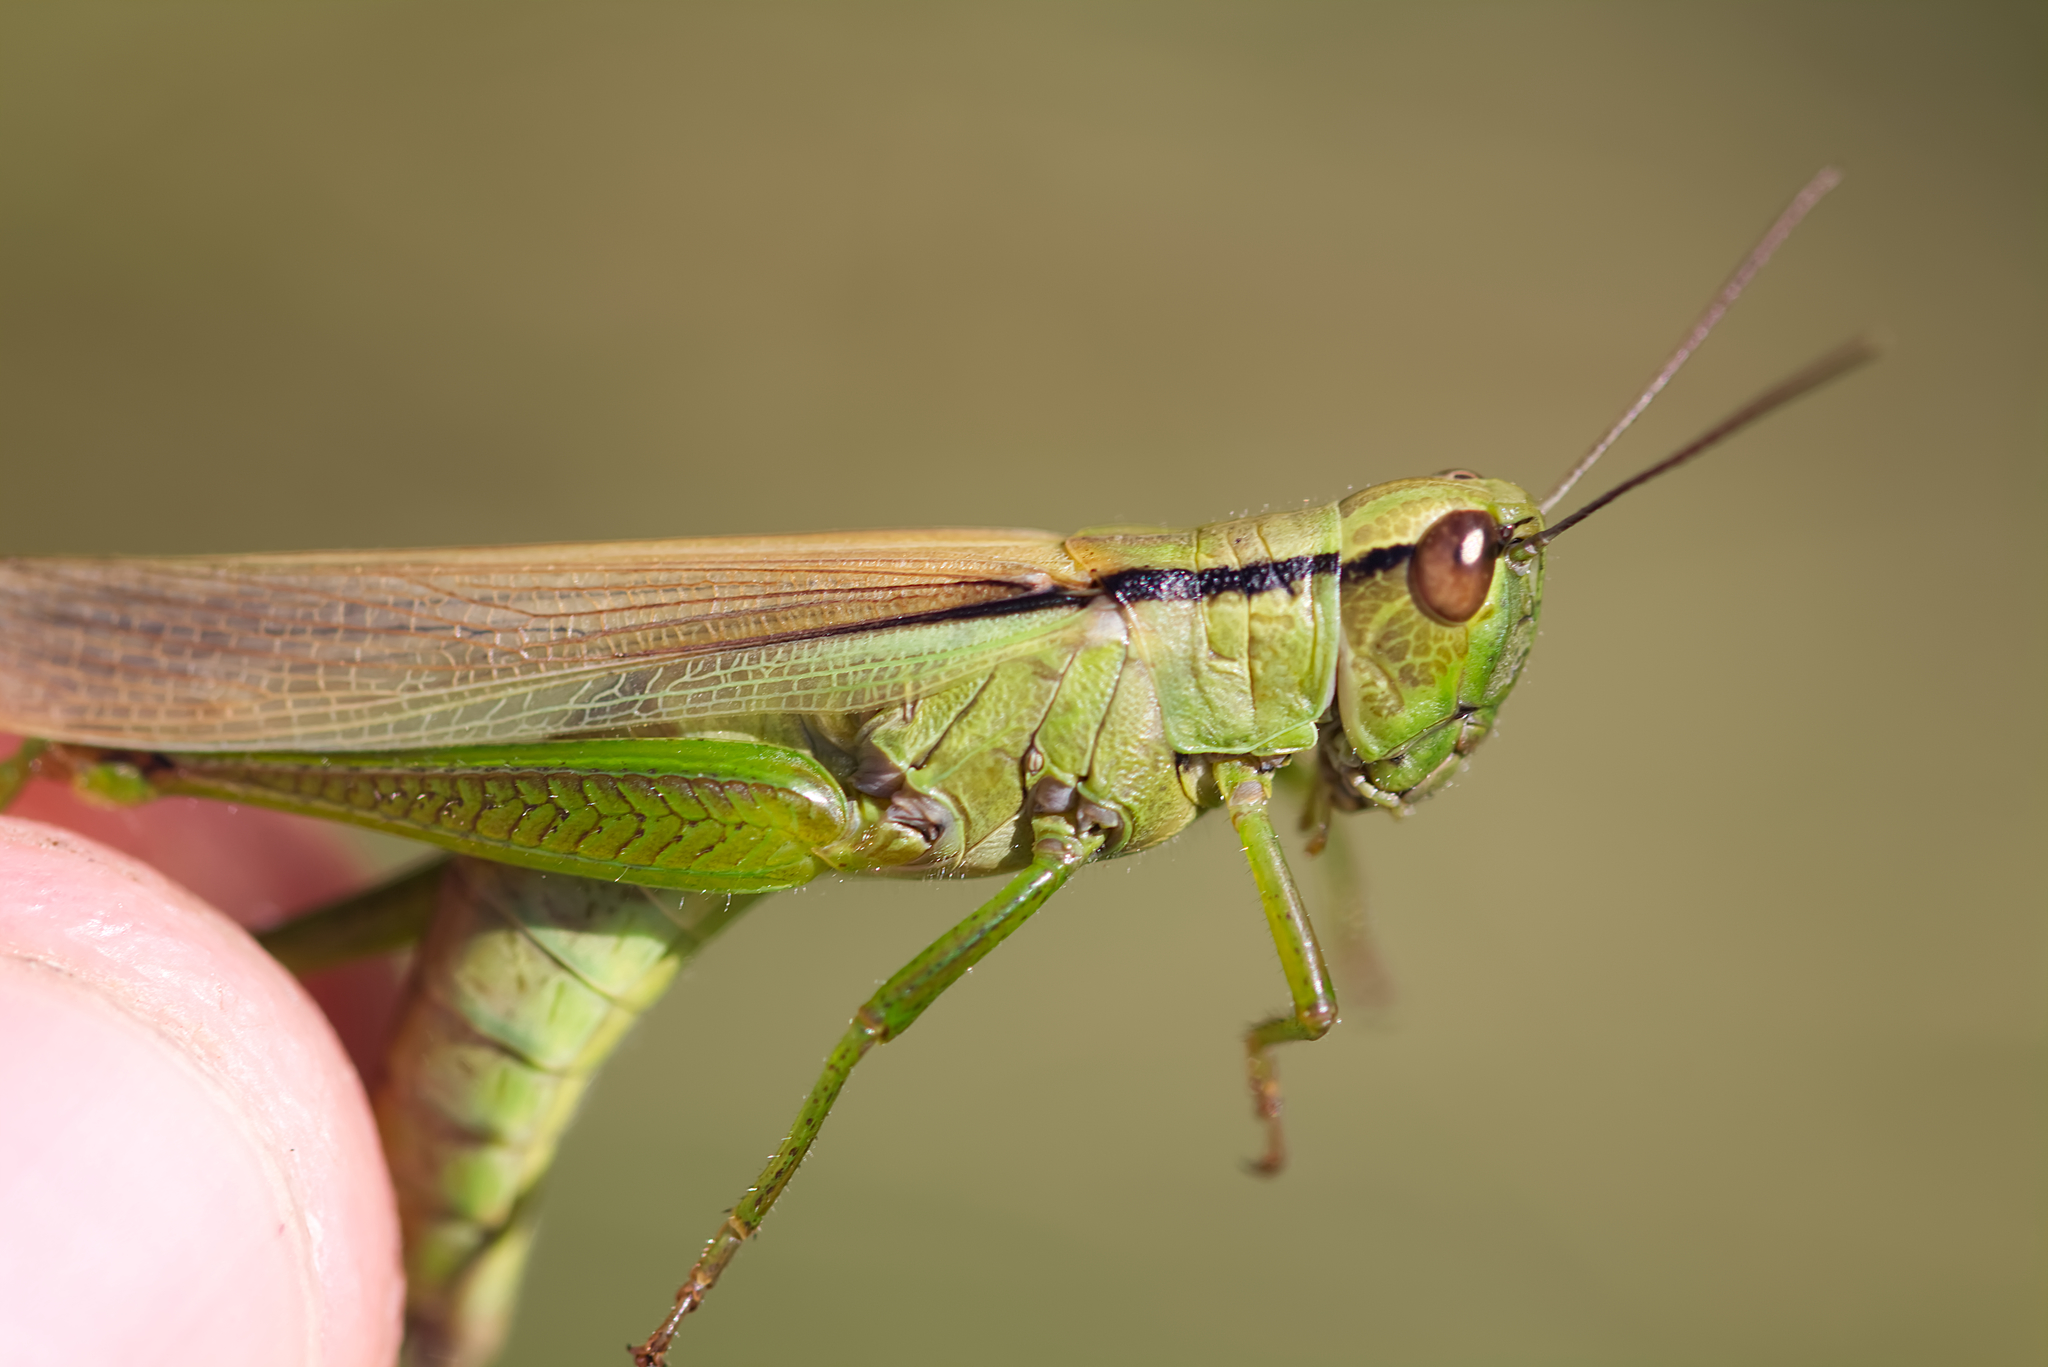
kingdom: Animalia
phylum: Arthropoda
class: Insecta
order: Orthoptera
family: Acrididae
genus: Mecostethus
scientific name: Mecostethus parapleurus
